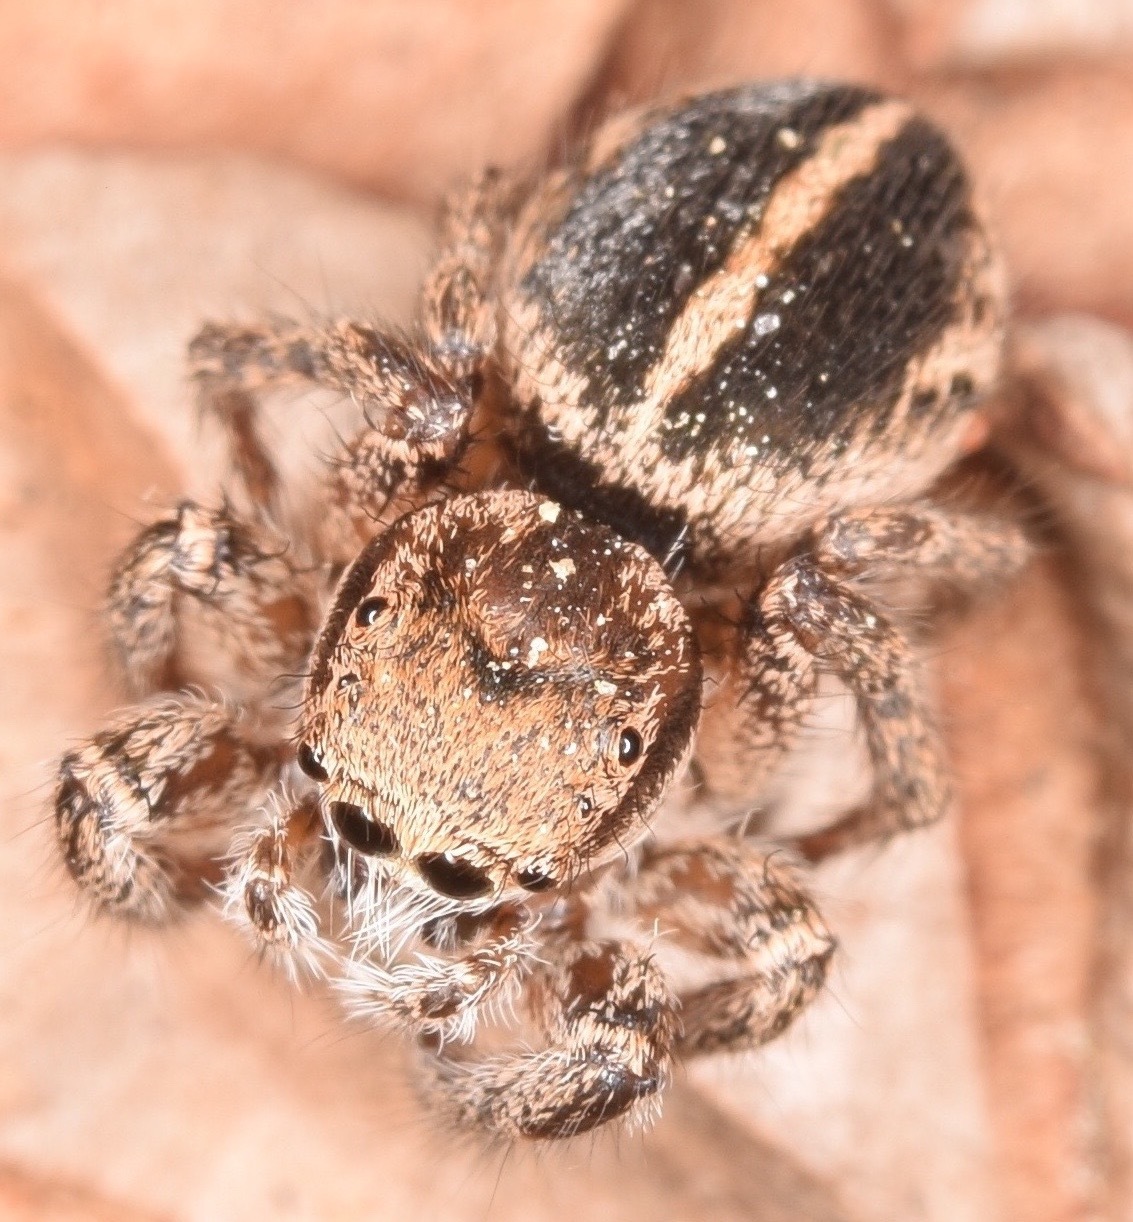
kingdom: Animalia
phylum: Arthropoda
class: Arachnida
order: Araneae
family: Salticidae
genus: Habronattus
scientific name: Habronattus orbus
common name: Orbus paradise spider
